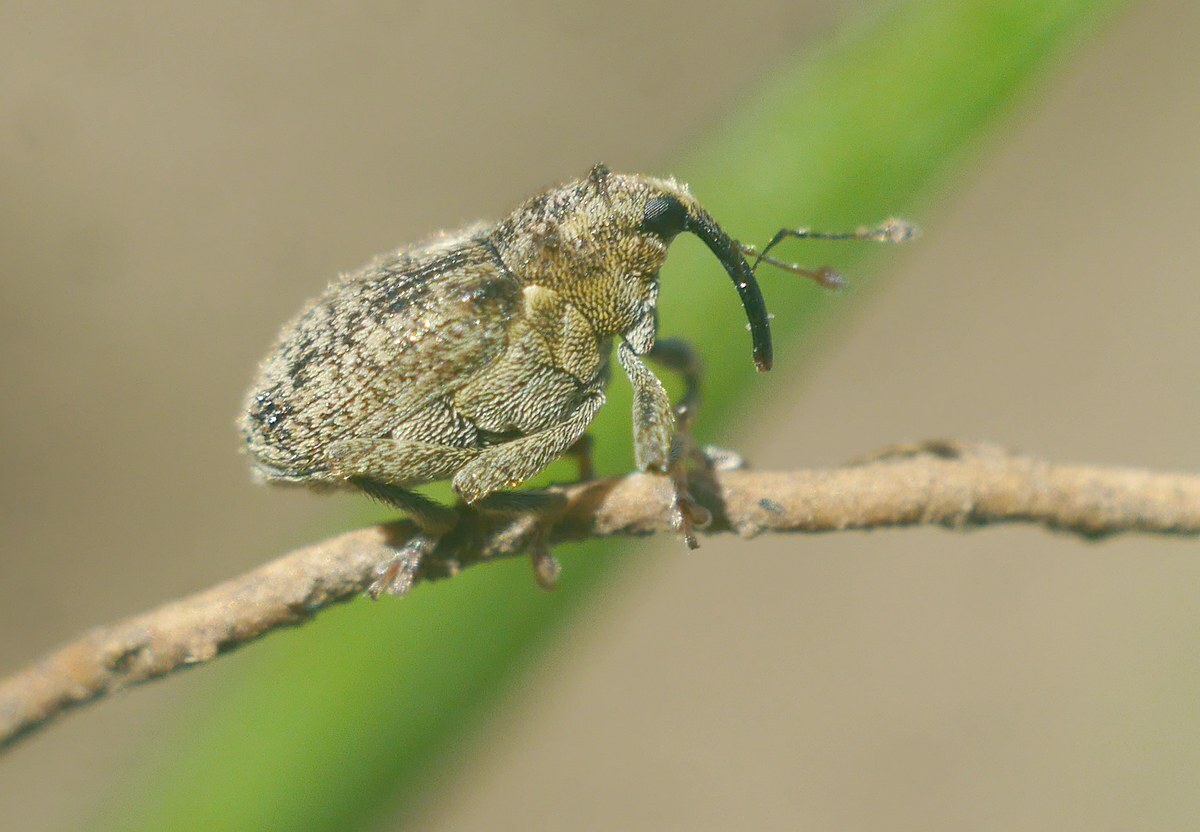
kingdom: Animalia
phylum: Arthropoda
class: Insecta
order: Coleoptera
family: Curculionidae
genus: Ceutorhynchus
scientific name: Ceutorhynchus pallidactylus
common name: Cabbage stem weavil
